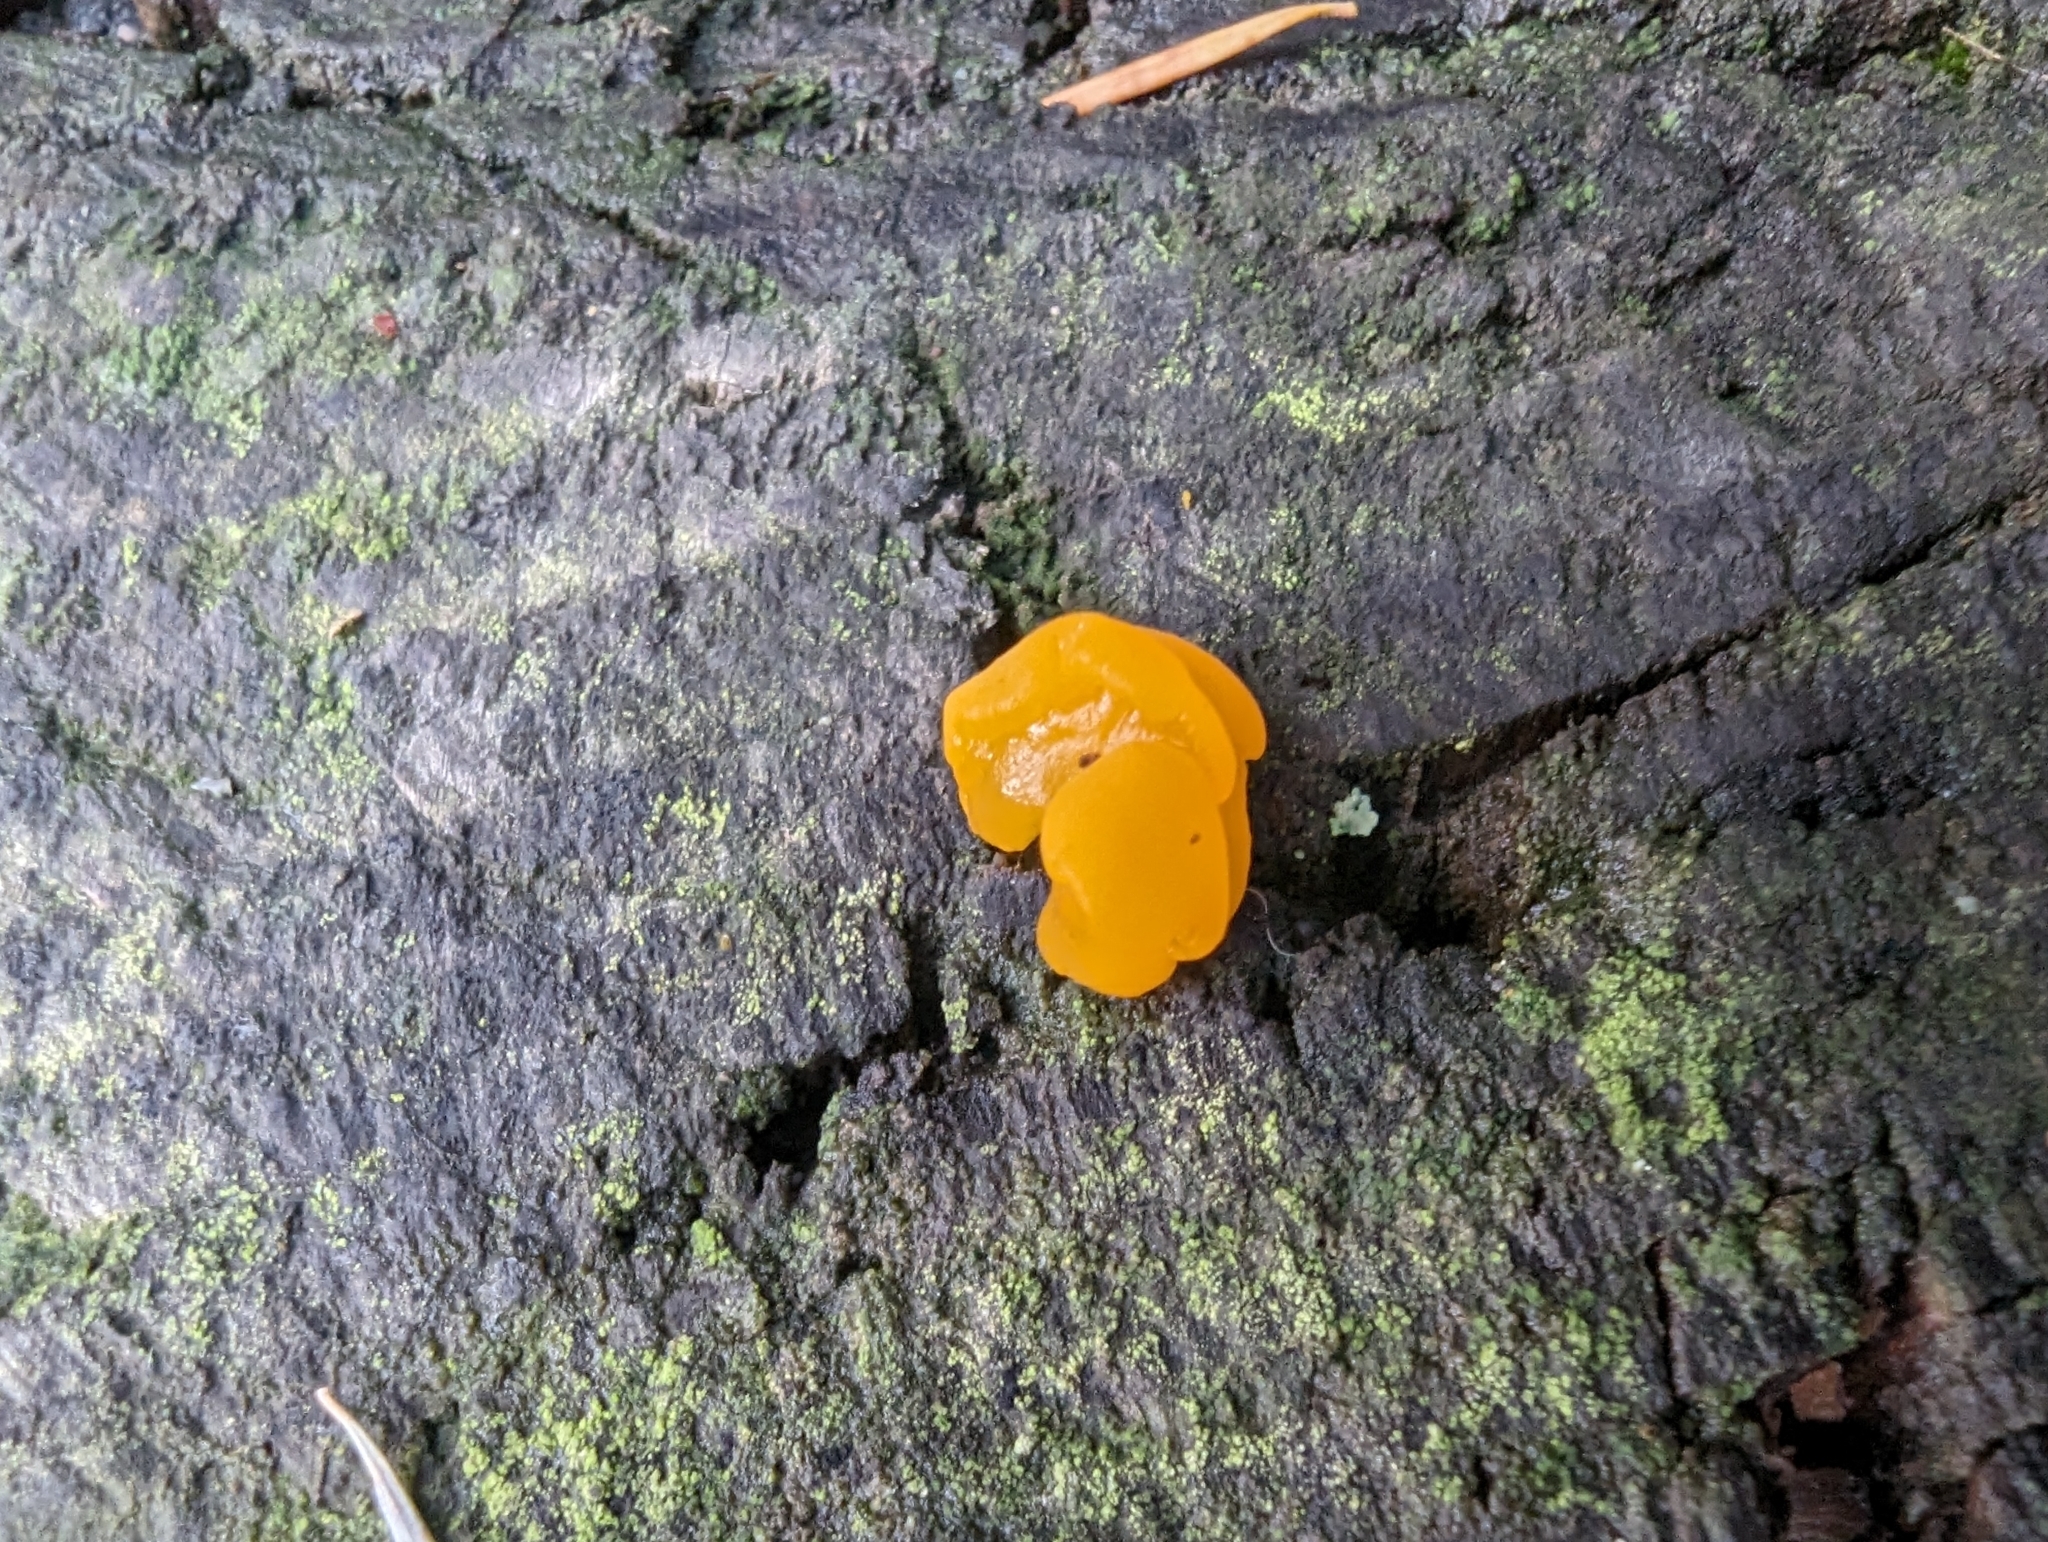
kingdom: Fungi
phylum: Basidiomycota
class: Dacrymycetes
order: Dacrymycetales
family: Dacrymycetaceae
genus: Dacrymyces
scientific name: Dacrymyces chrysospermus
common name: Orange jelly spot
